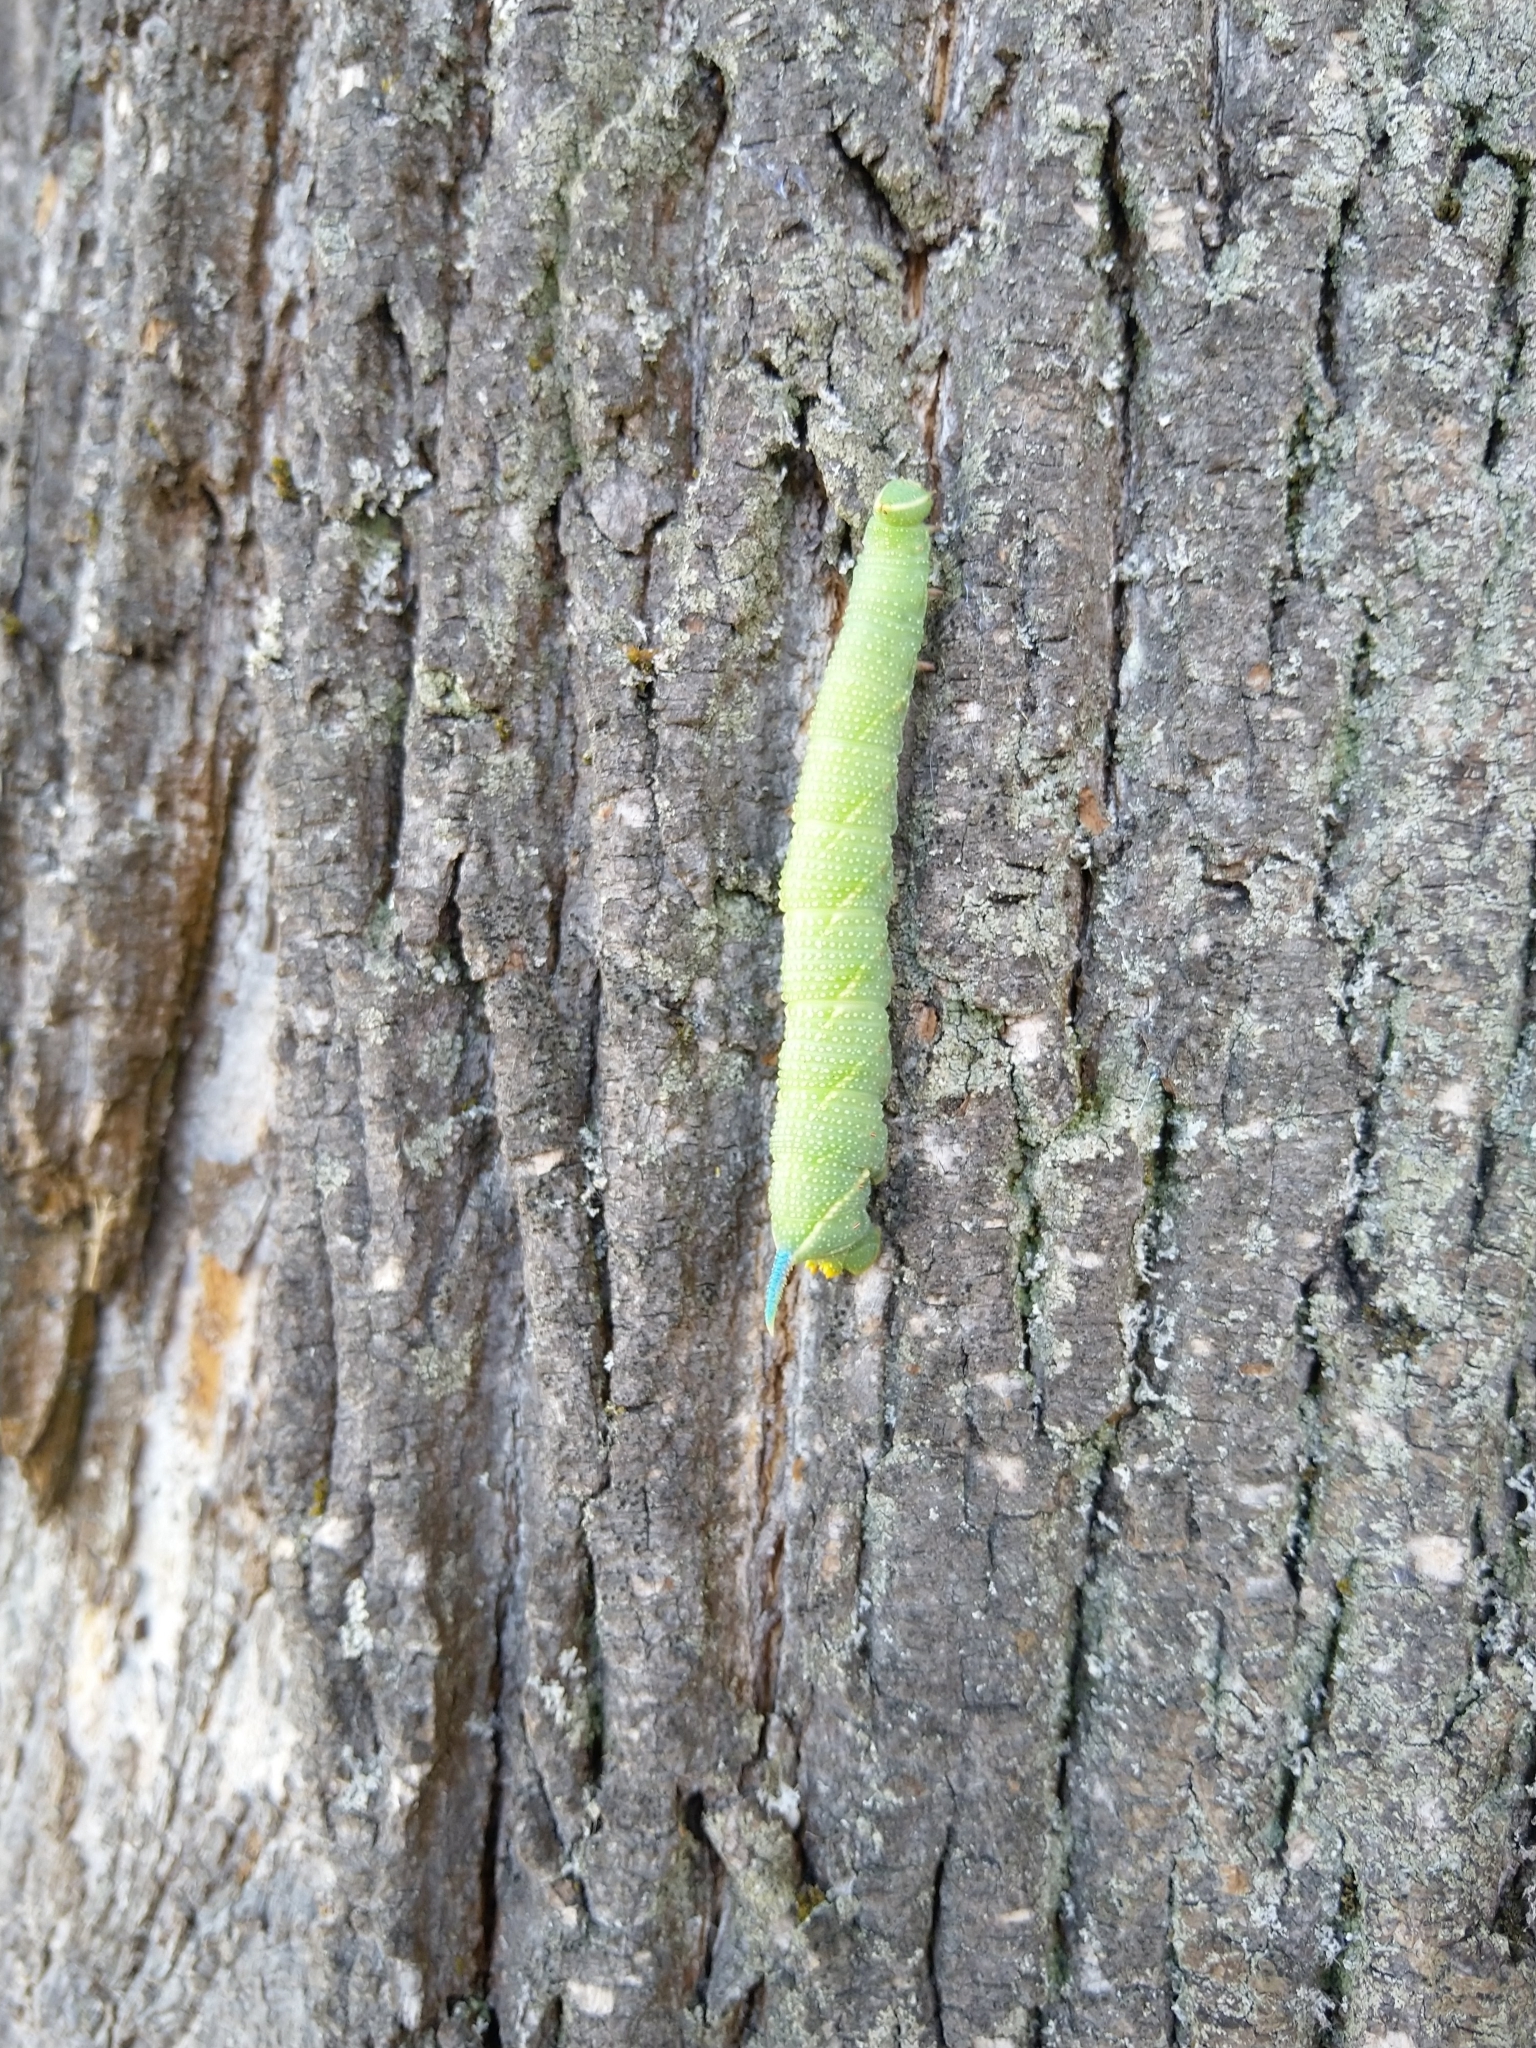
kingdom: Animalia
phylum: Arthropoda
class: Insecta
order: Lepidoptera
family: Sphingidae
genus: Mimas
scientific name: Mimas tiliae
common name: Lime hawk-moth
